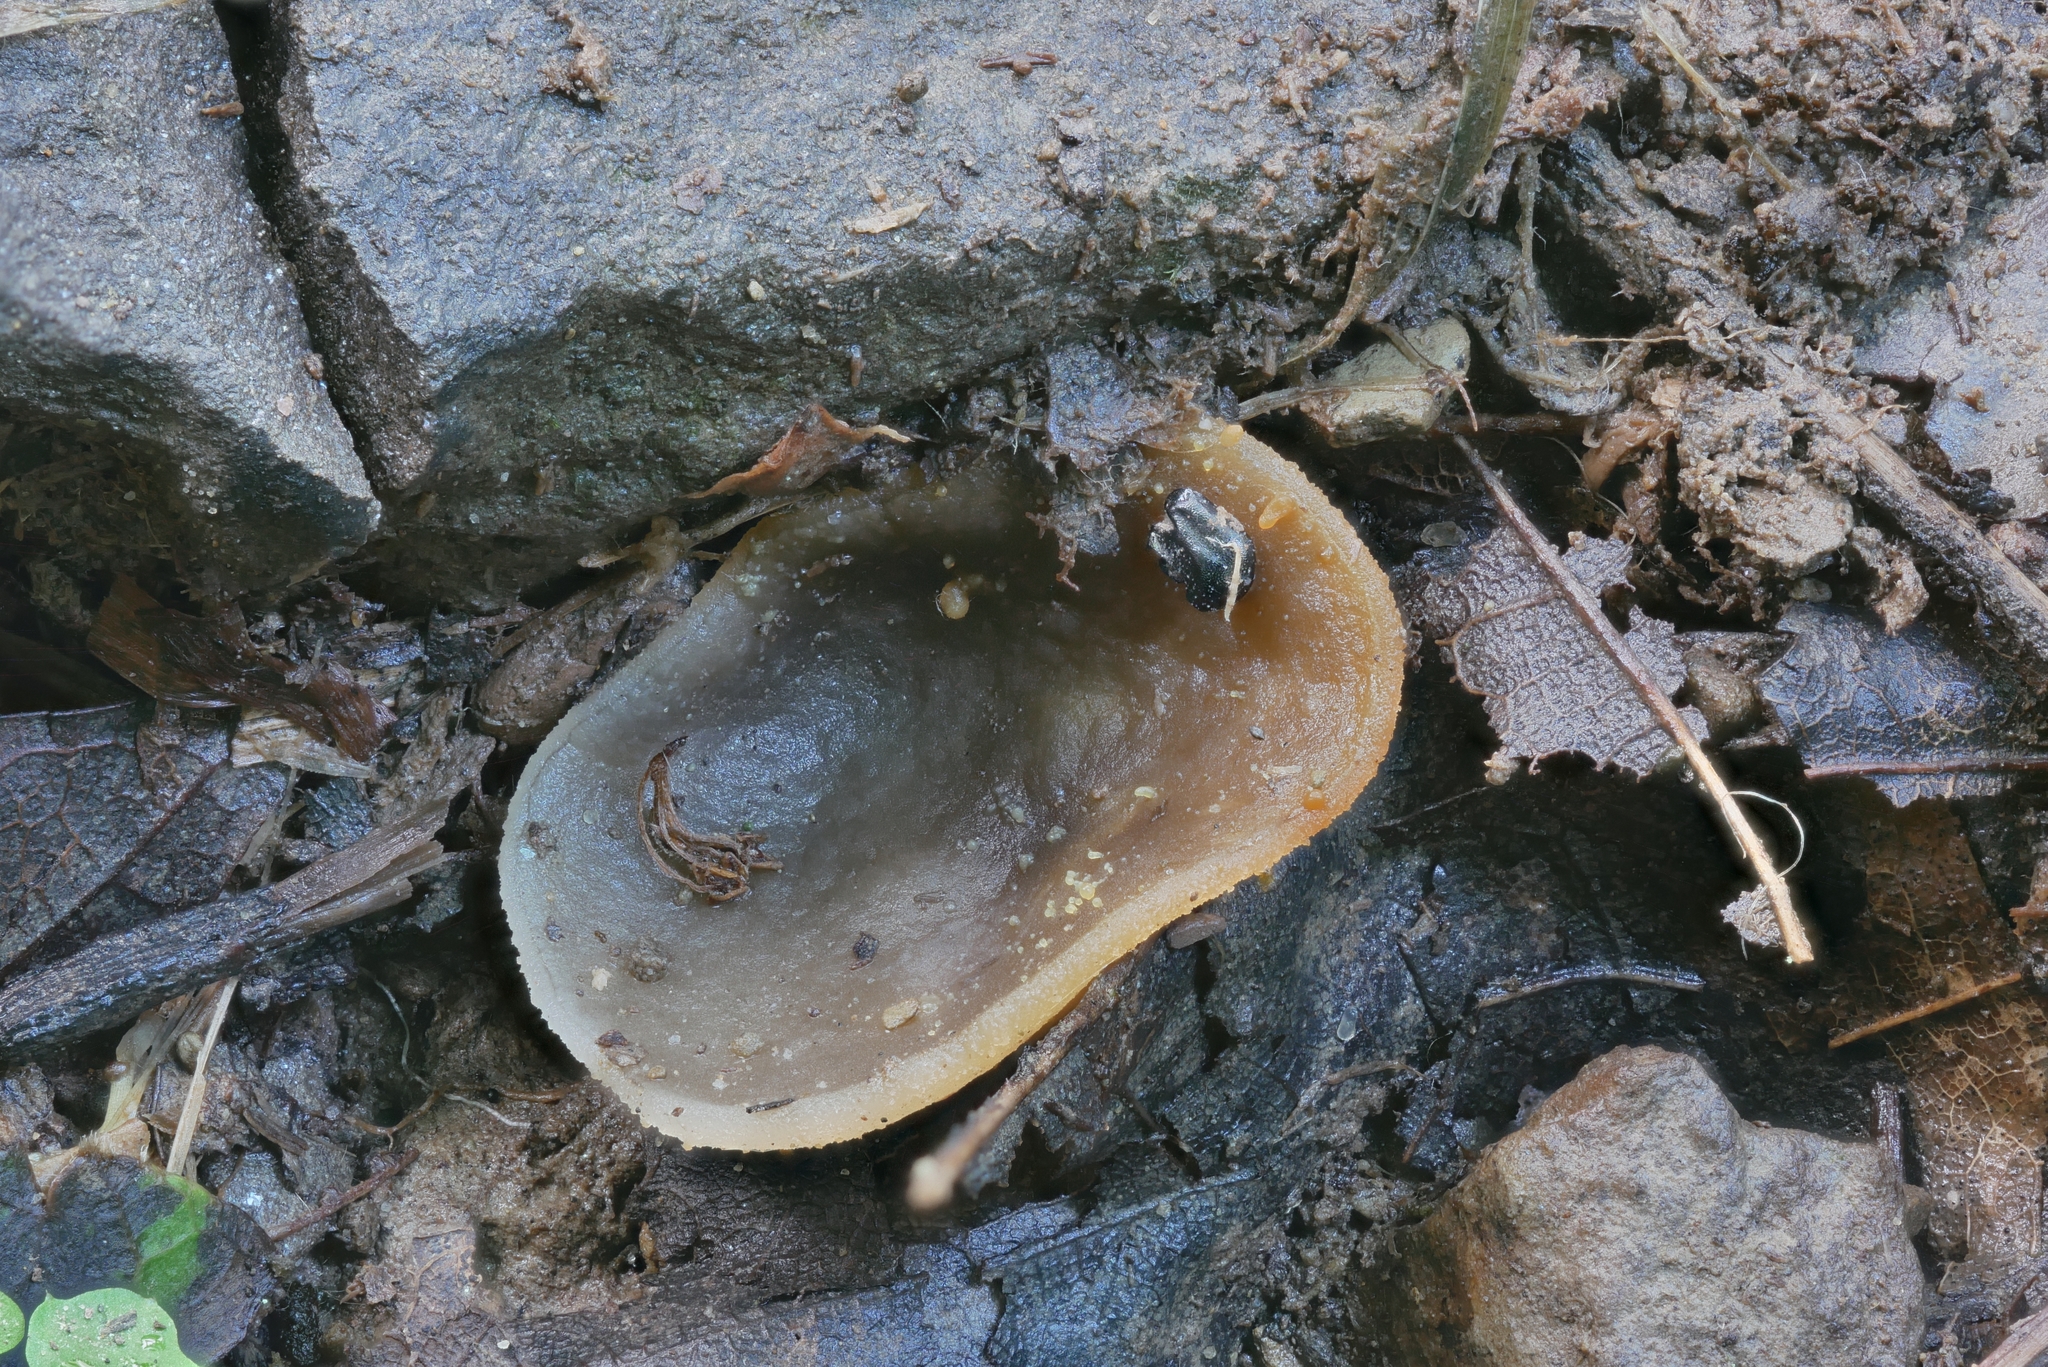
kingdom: Fungi
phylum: Ascomycota
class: Pezizomycetes
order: Pezizales
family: Pezizaceae
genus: Pachyella
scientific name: Pachyella celtica
